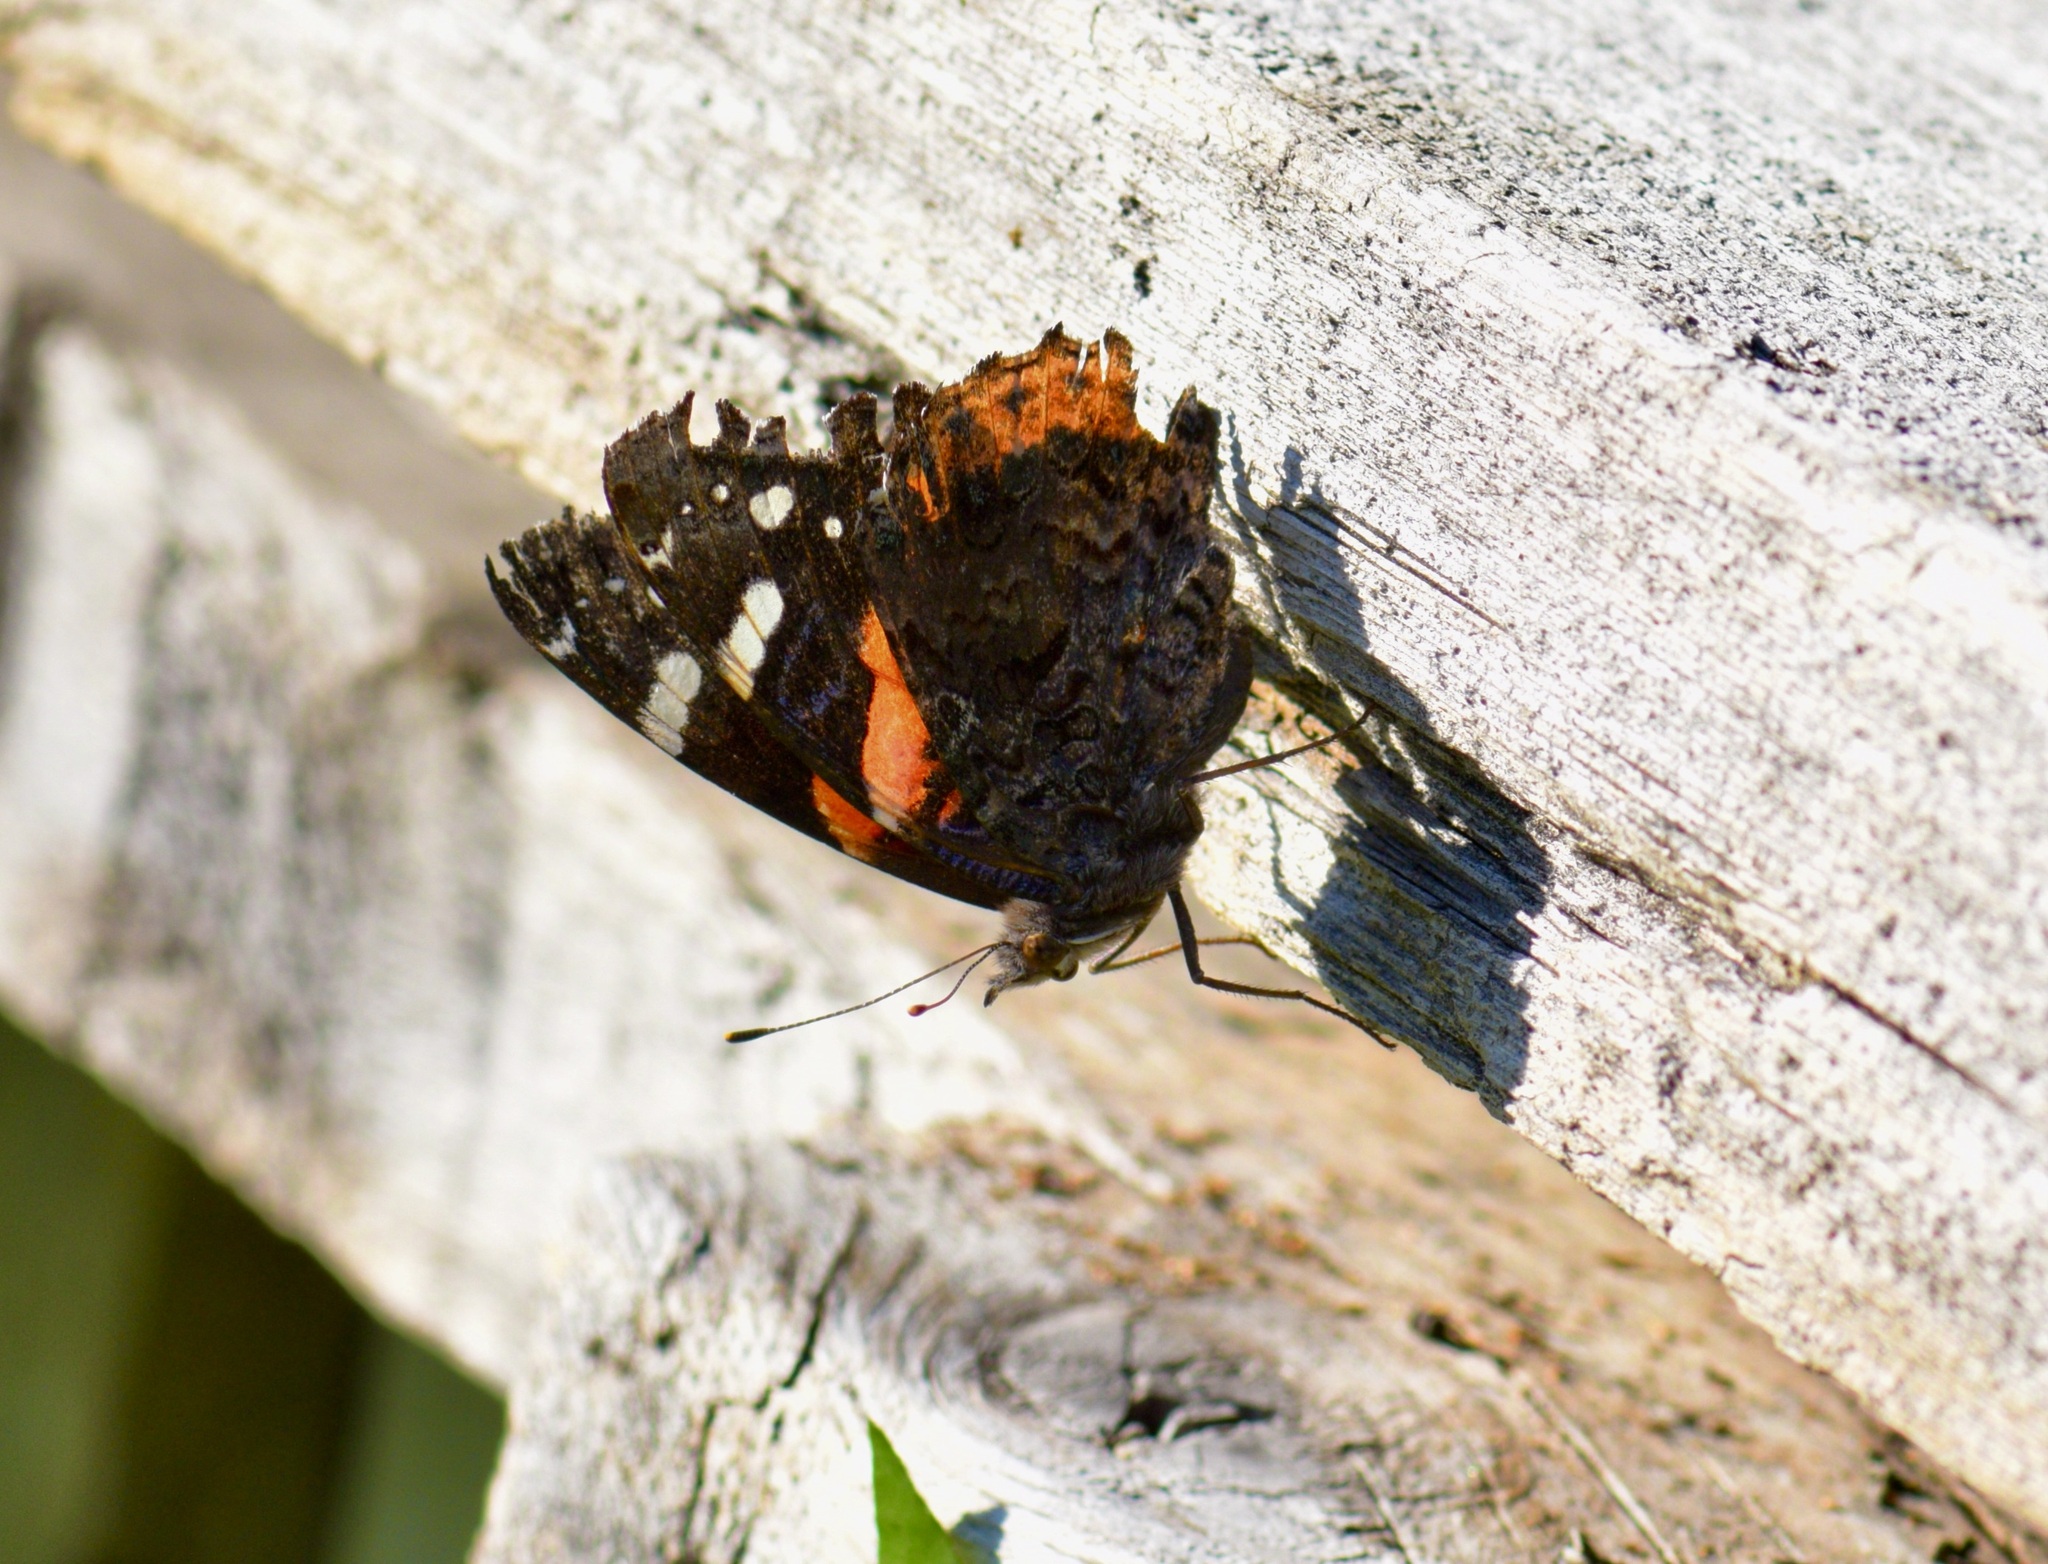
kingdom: Animalia
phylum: Arthropoda
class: Insecta
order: Lepidoptera
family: Nymphalidae
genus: Vanessa
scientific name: Vanessa atalanta
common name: Red admiral
